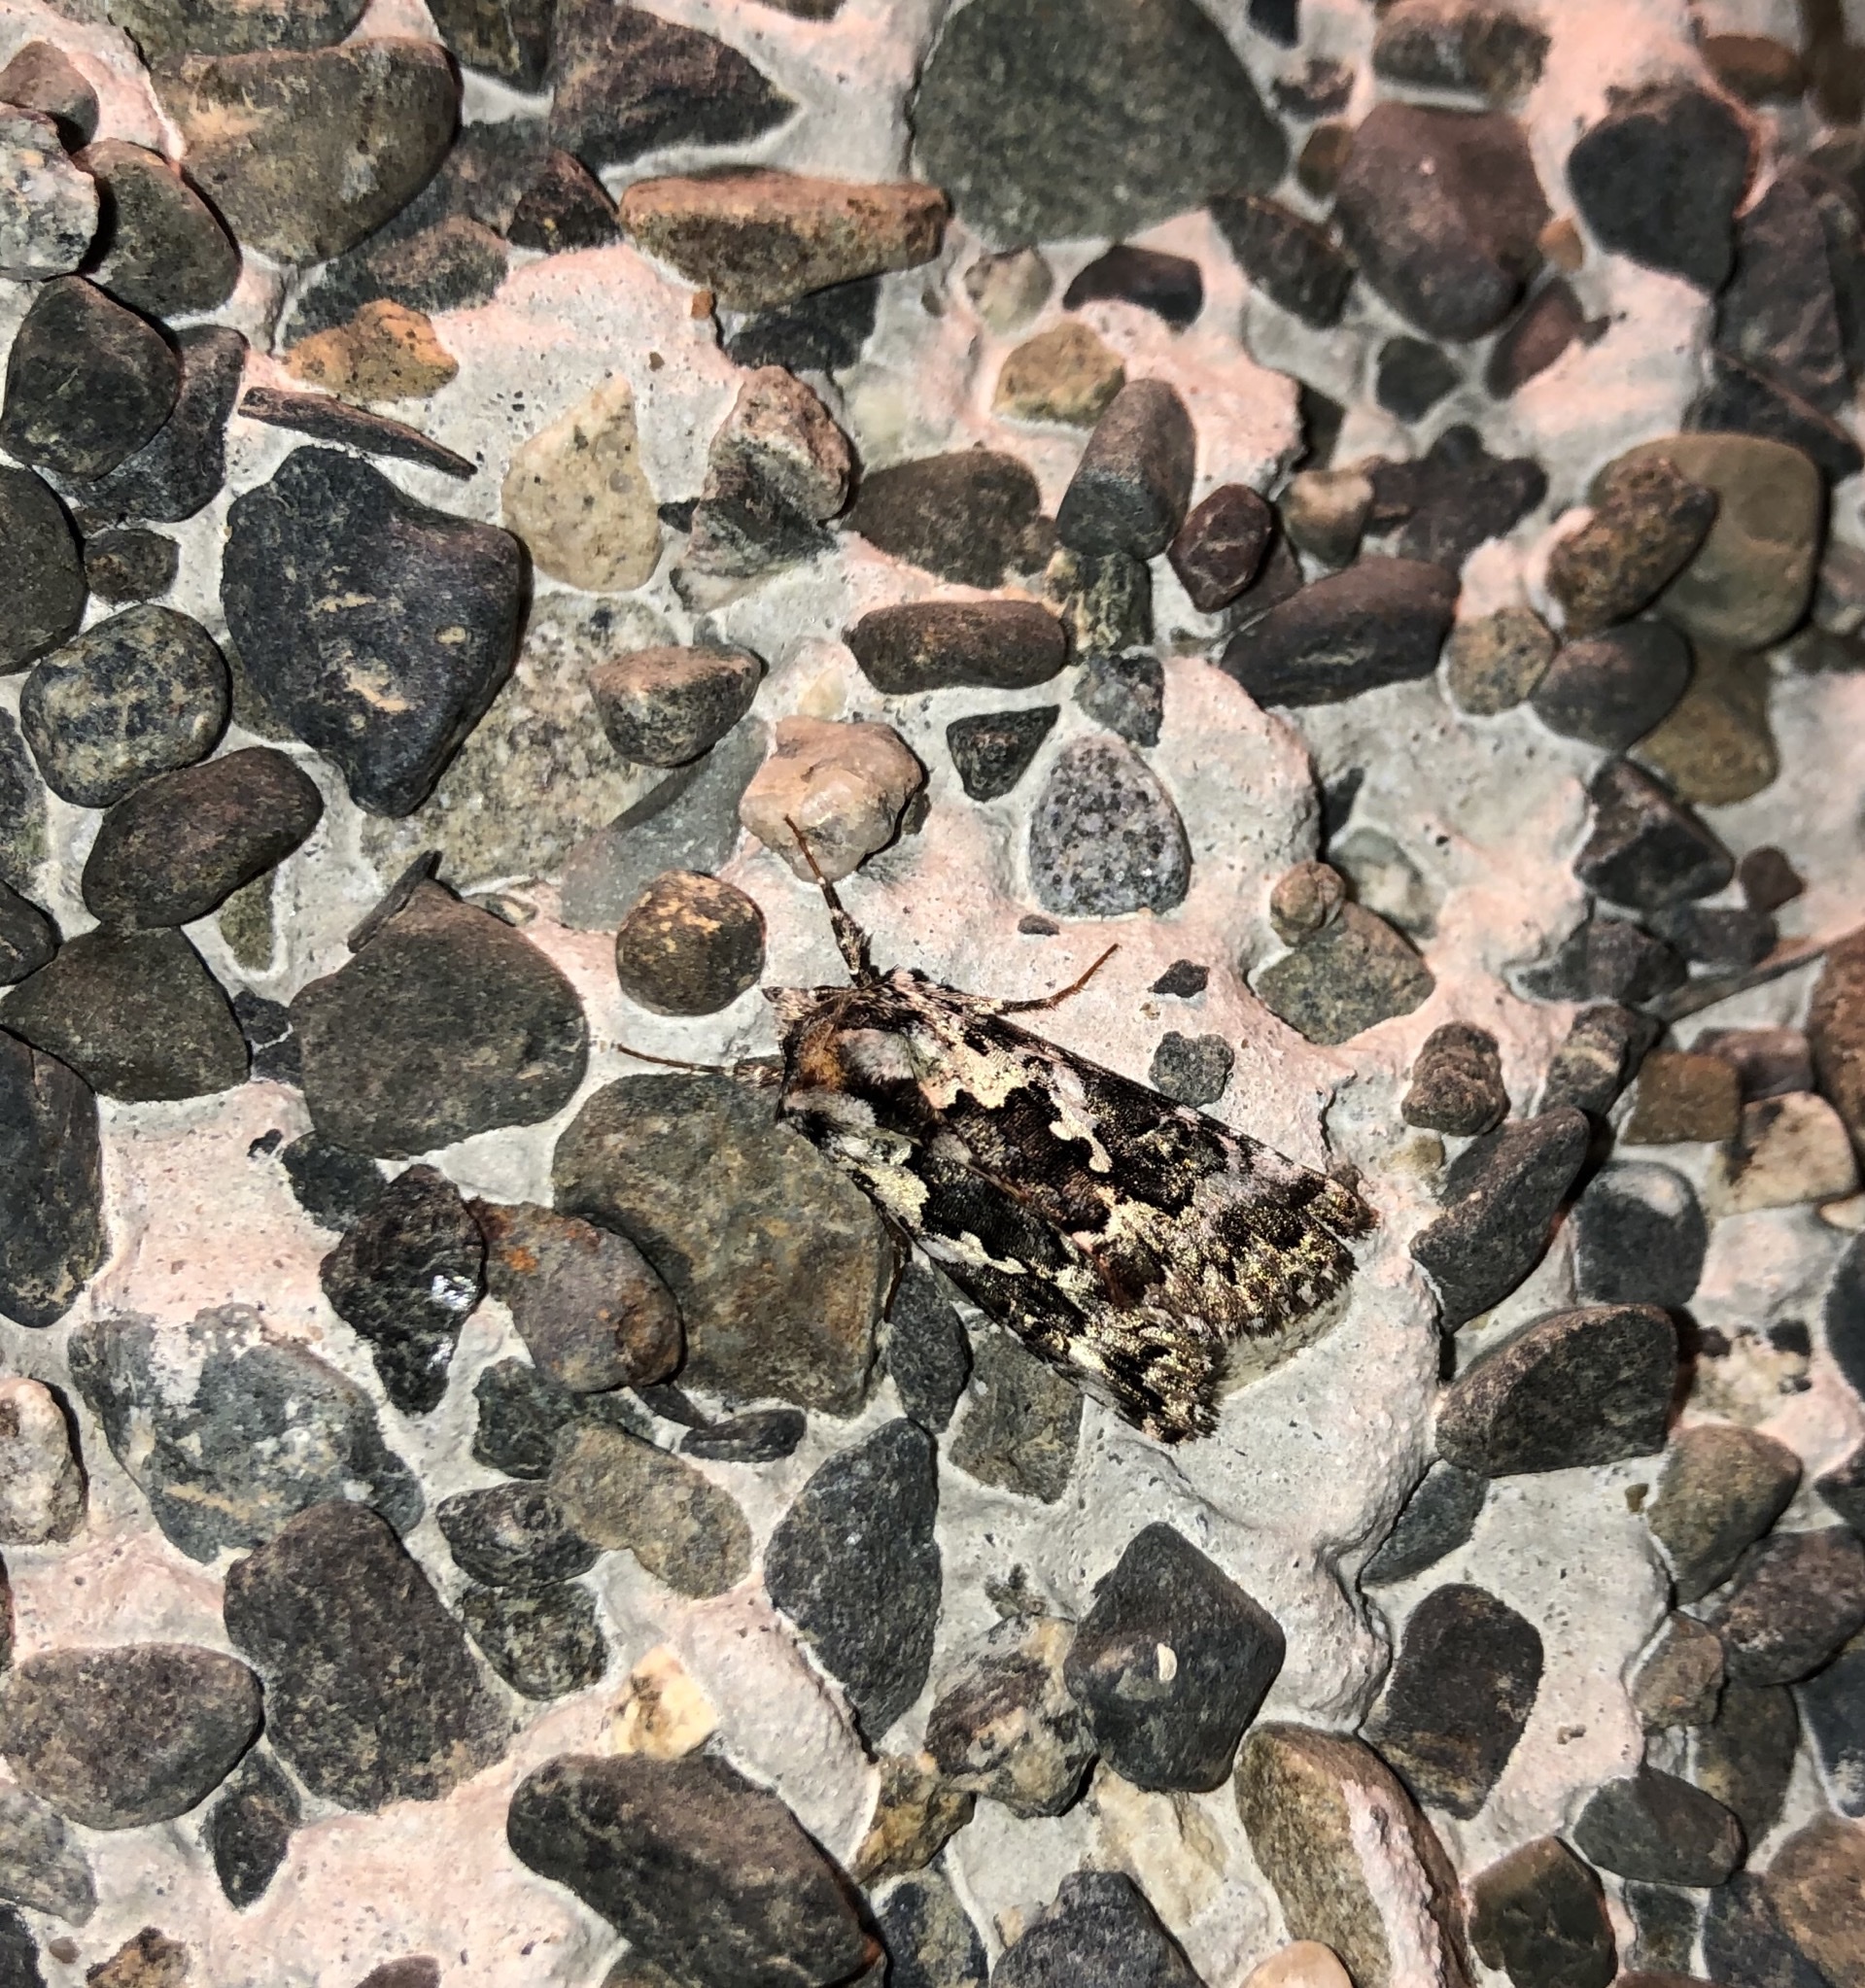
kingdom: Animalia
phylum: Arthropoda
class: Insecta
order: Lepidoptera
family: Noctuidae
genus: Syngrapha
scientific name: Syngrapha rectangula
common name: Angulated cutworm
